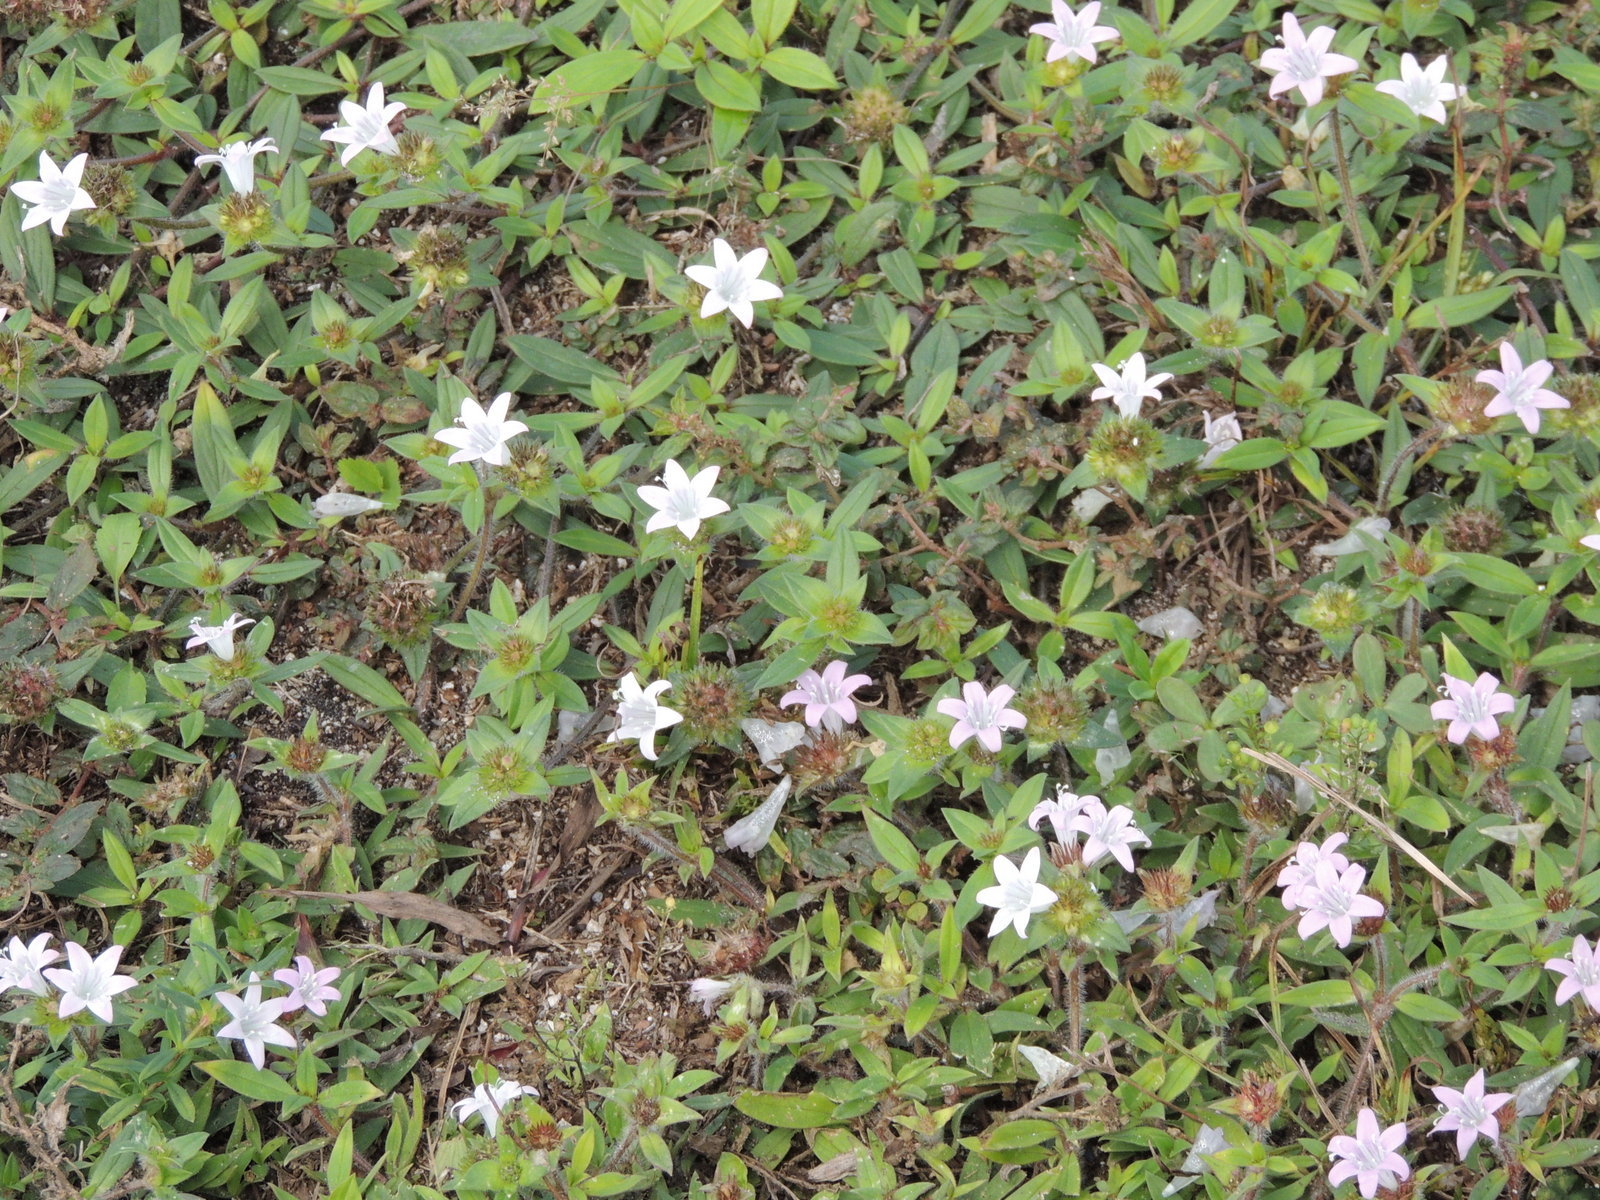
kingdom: Plantae
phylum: Tracheophyta
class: Magnoliopsida
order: Gentianales
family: Rubiaceae
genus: Richardia
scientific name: Richardia grandiflora
